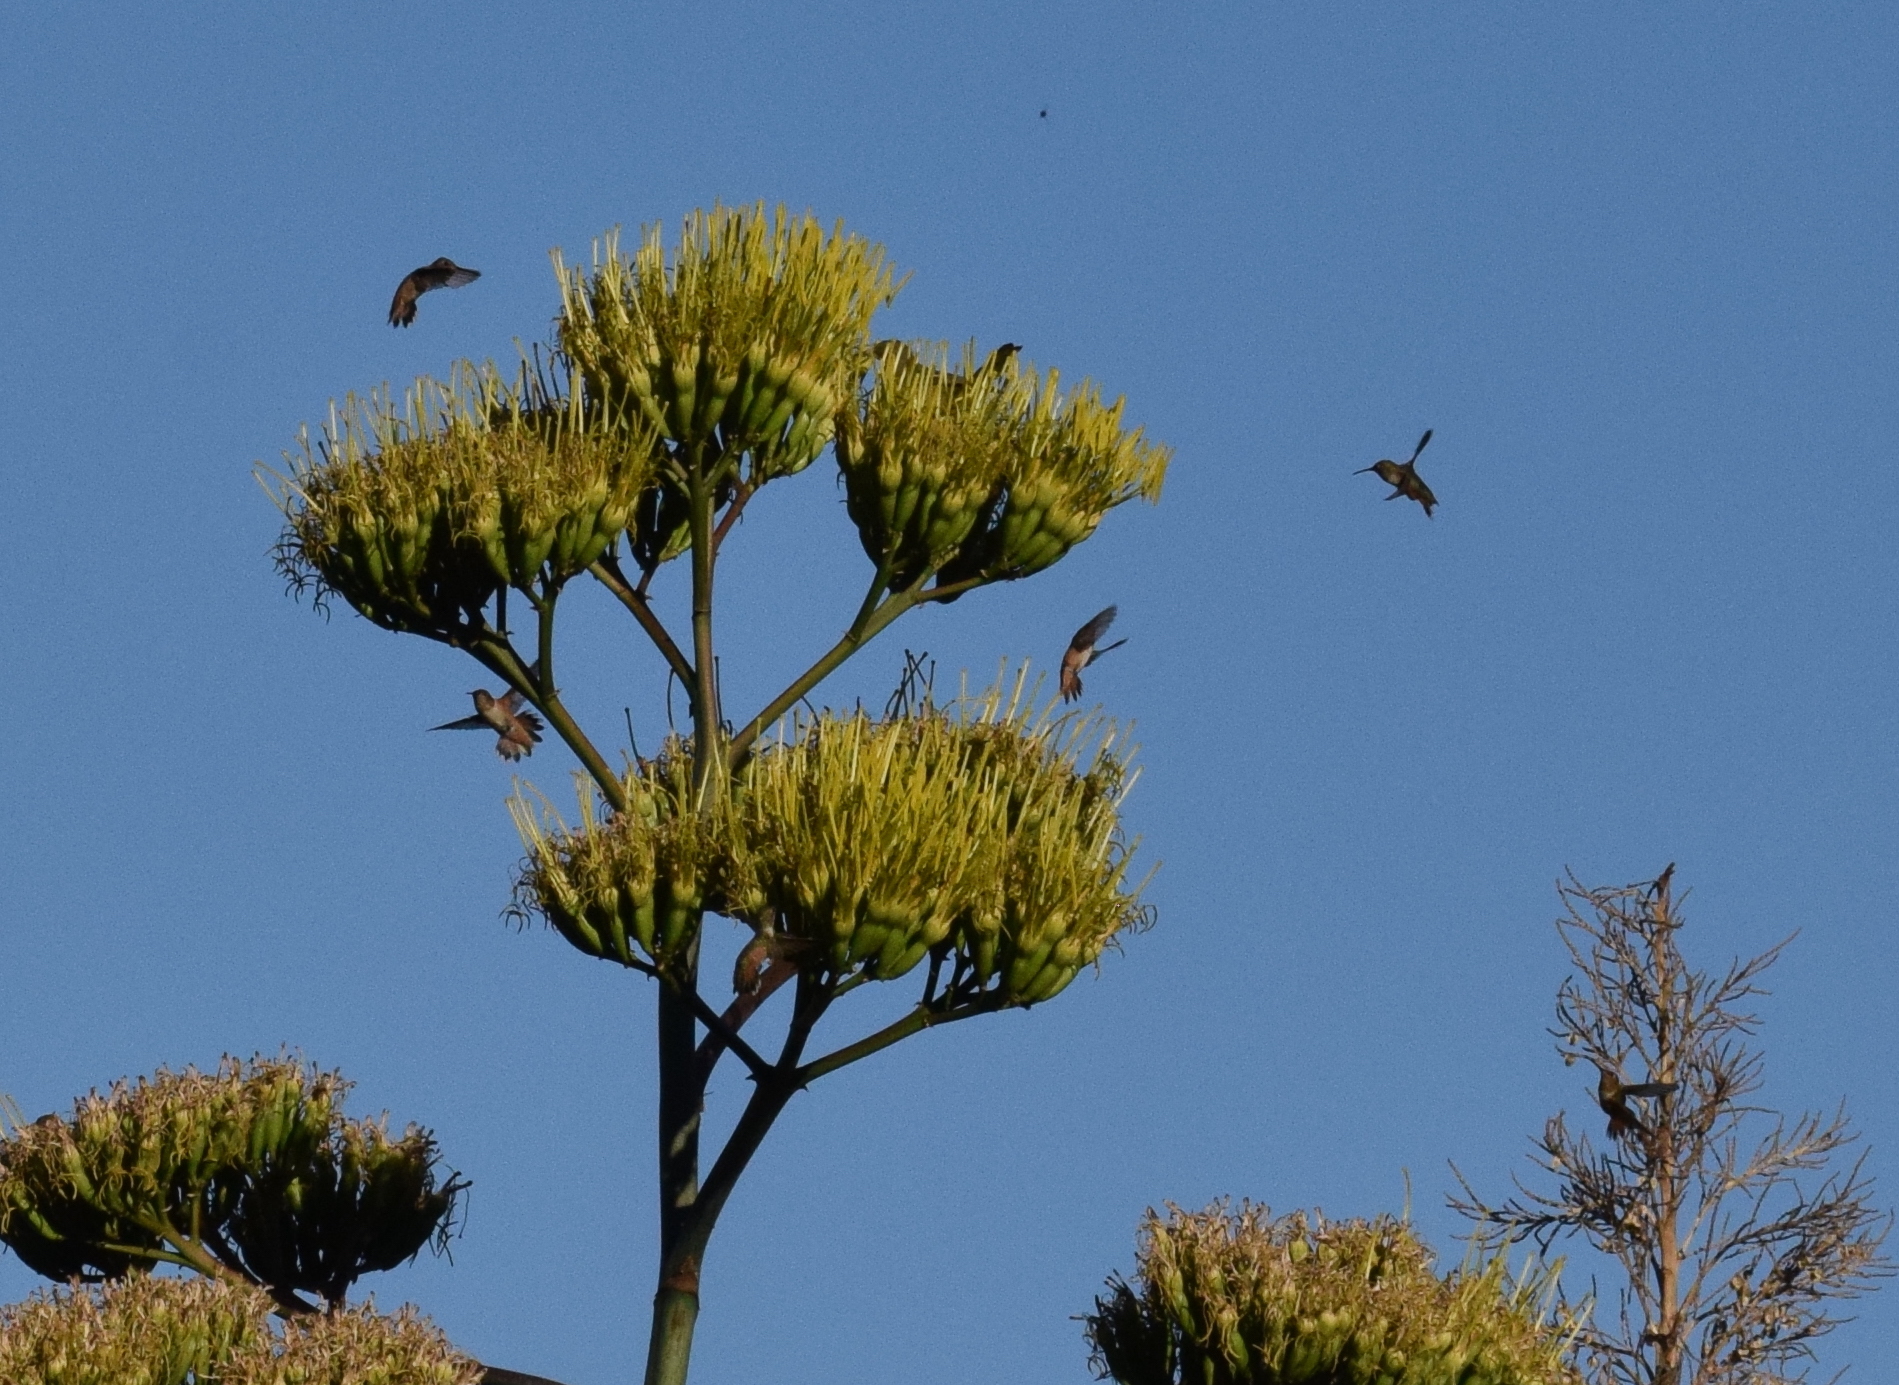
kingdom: Animalia
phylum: Chordata
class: Aves
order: Apodiformes
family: Trochilidae
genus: Selasphorus
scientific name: Selasphorus sasin
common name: Allen's hummingbird
